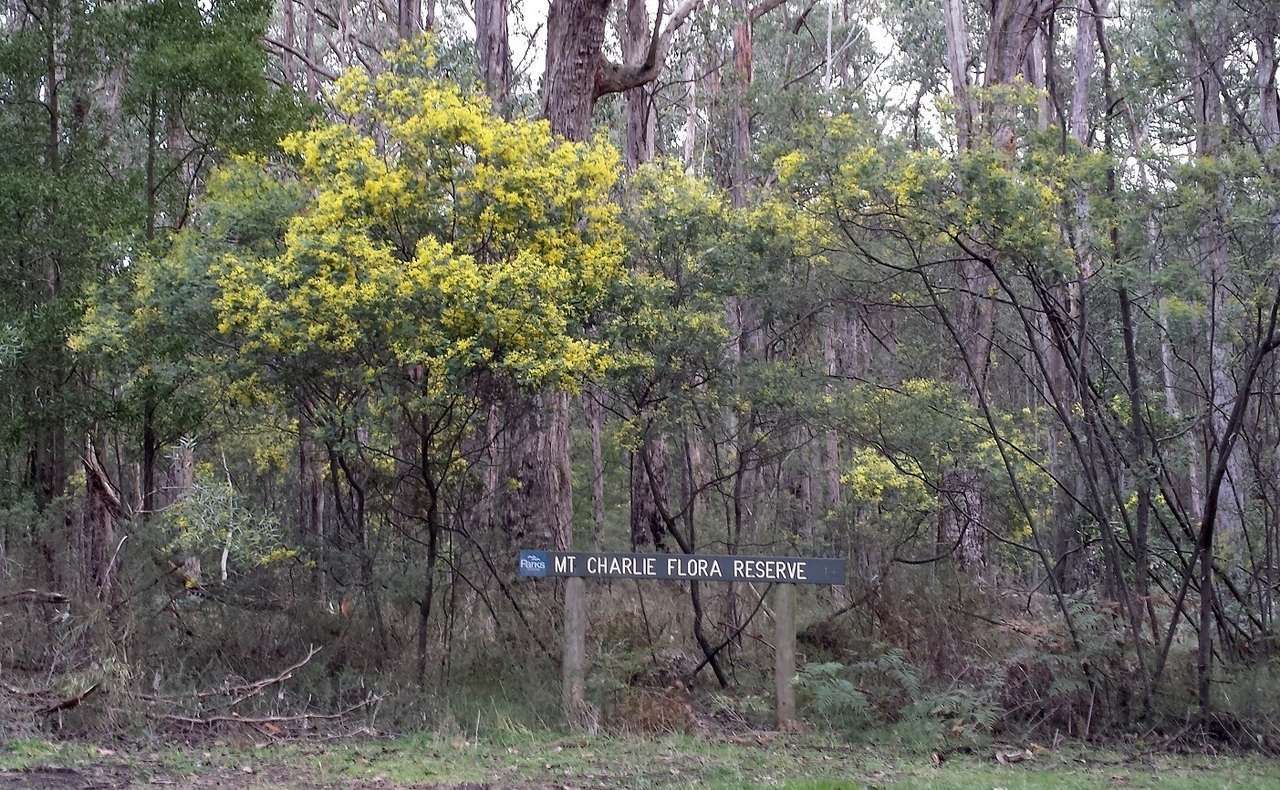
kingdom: Plantae
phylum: Tracheophyta
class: Magnoliopsida
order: Fabales
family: Fabaceae
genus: Acacia
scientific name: Acacia nanodealbata
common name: Dwarf silver-wattle
